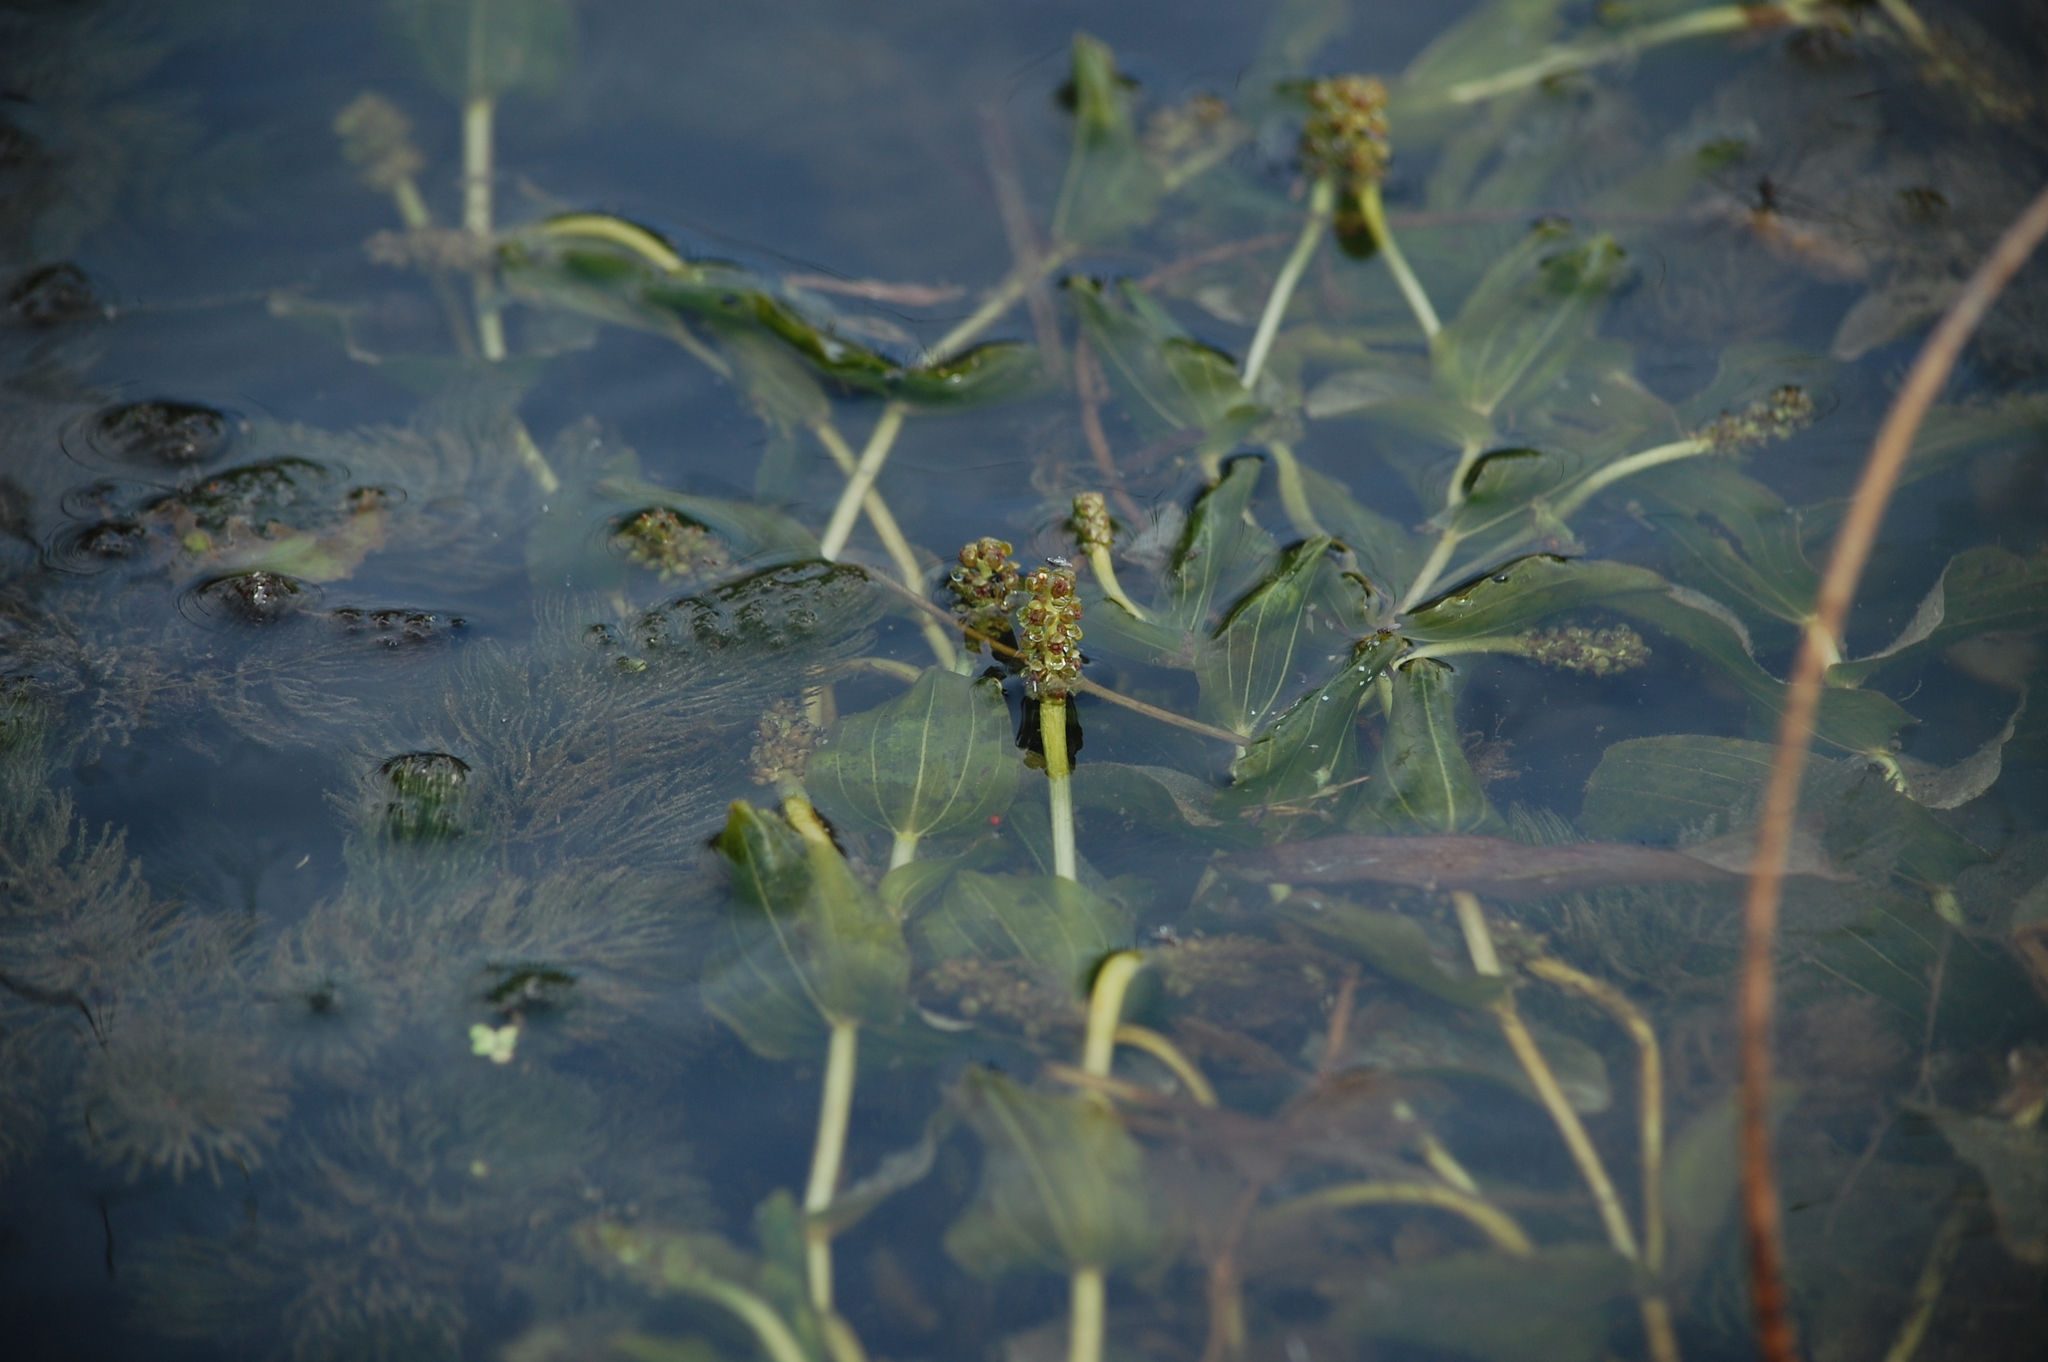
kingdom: Plantae
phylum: Tracheophyta
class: Liliopsida
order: Alismatales
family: Potamogetonaceae
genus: Potamogeton
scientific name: Potamogeton perfoliatus
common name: Perfoliate pondweed
